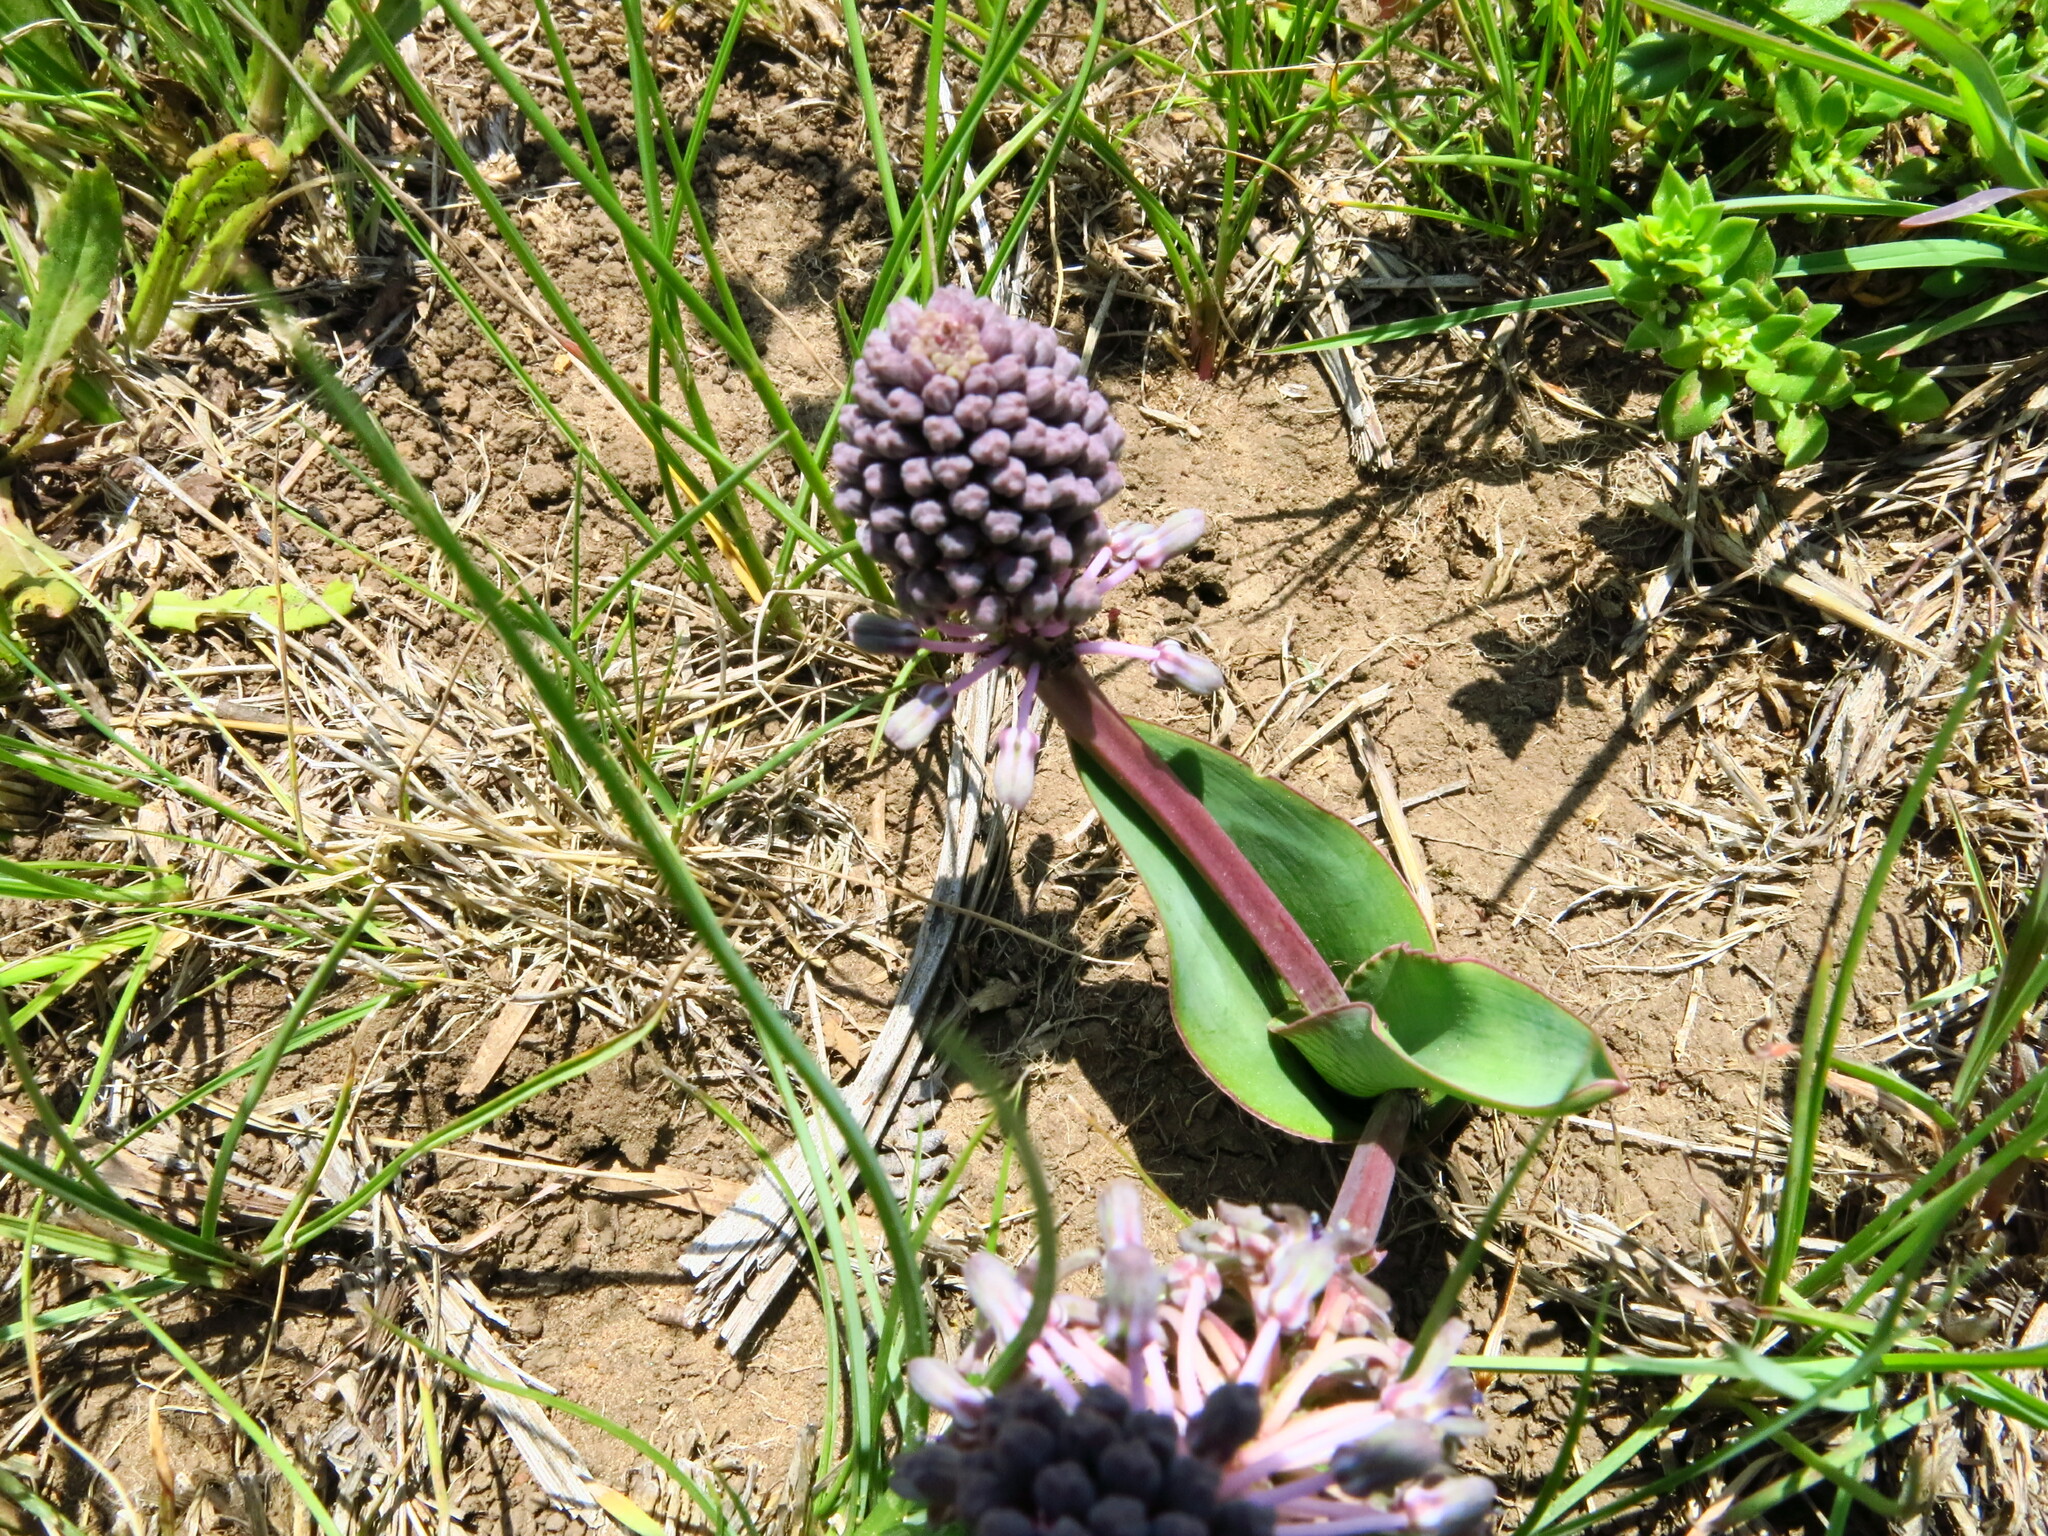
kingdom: Plantae
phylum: Tracheophyta
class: Liliopsida
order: Asparagales
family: Asparagaceae
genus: Ledebouria
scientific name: Ledebouria sandersonii
